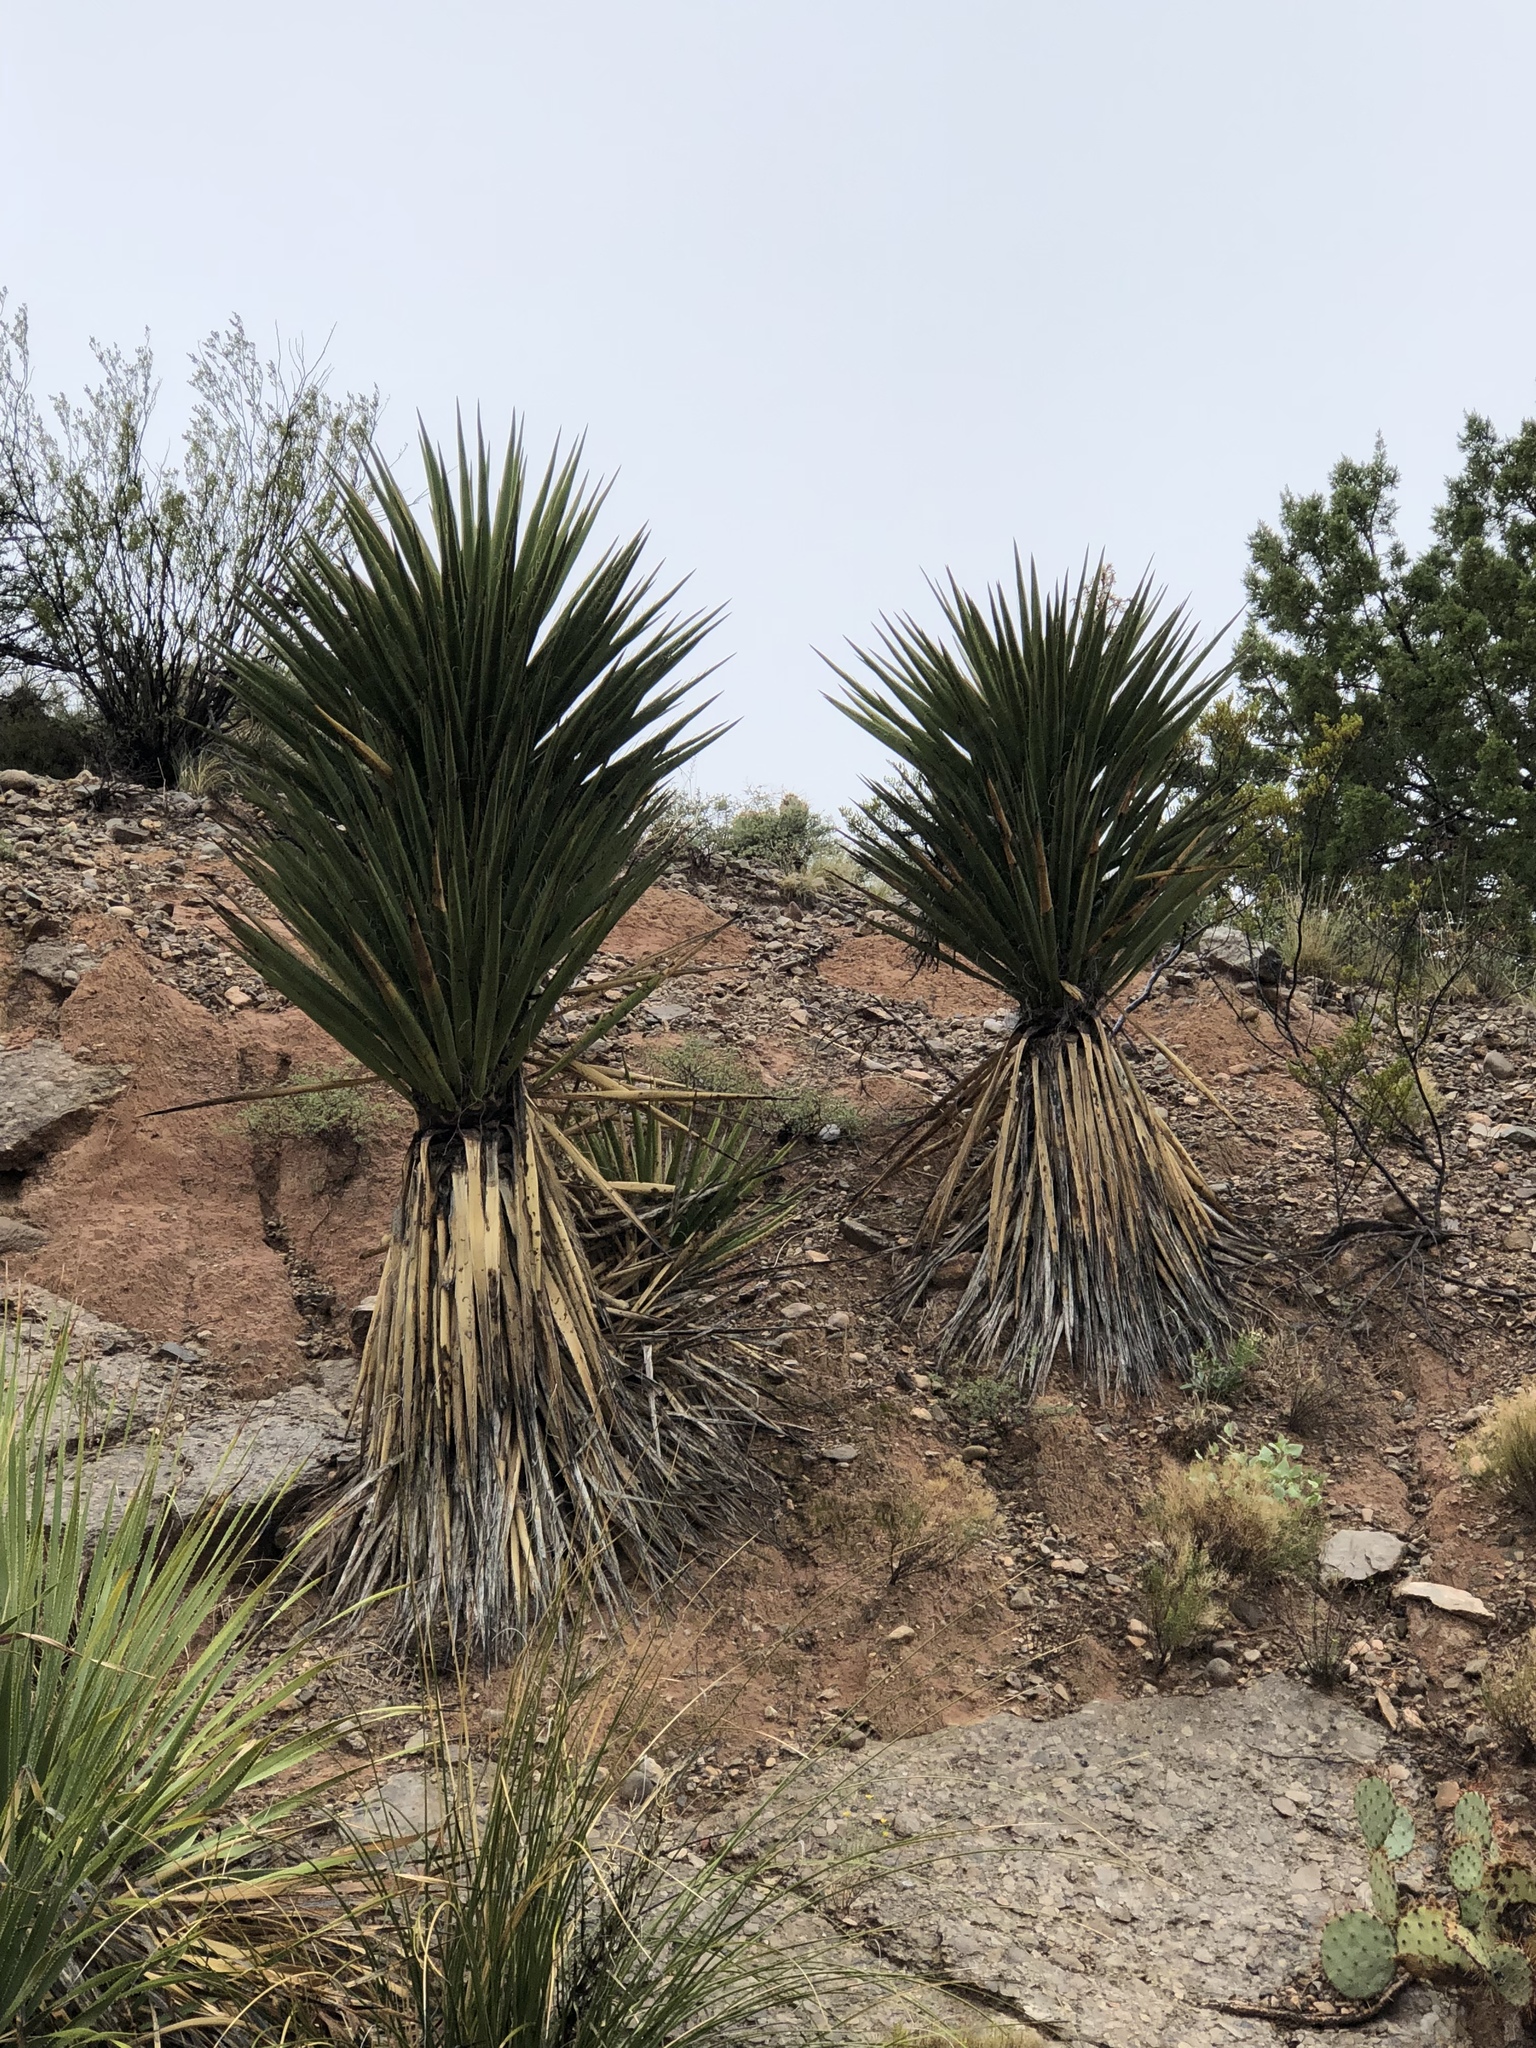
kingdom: Plantae
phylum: Tracheophyta
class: Liliopsida
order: Asparagales
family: Asparagaceae
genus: Yucca
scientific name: Yucca treculiana
